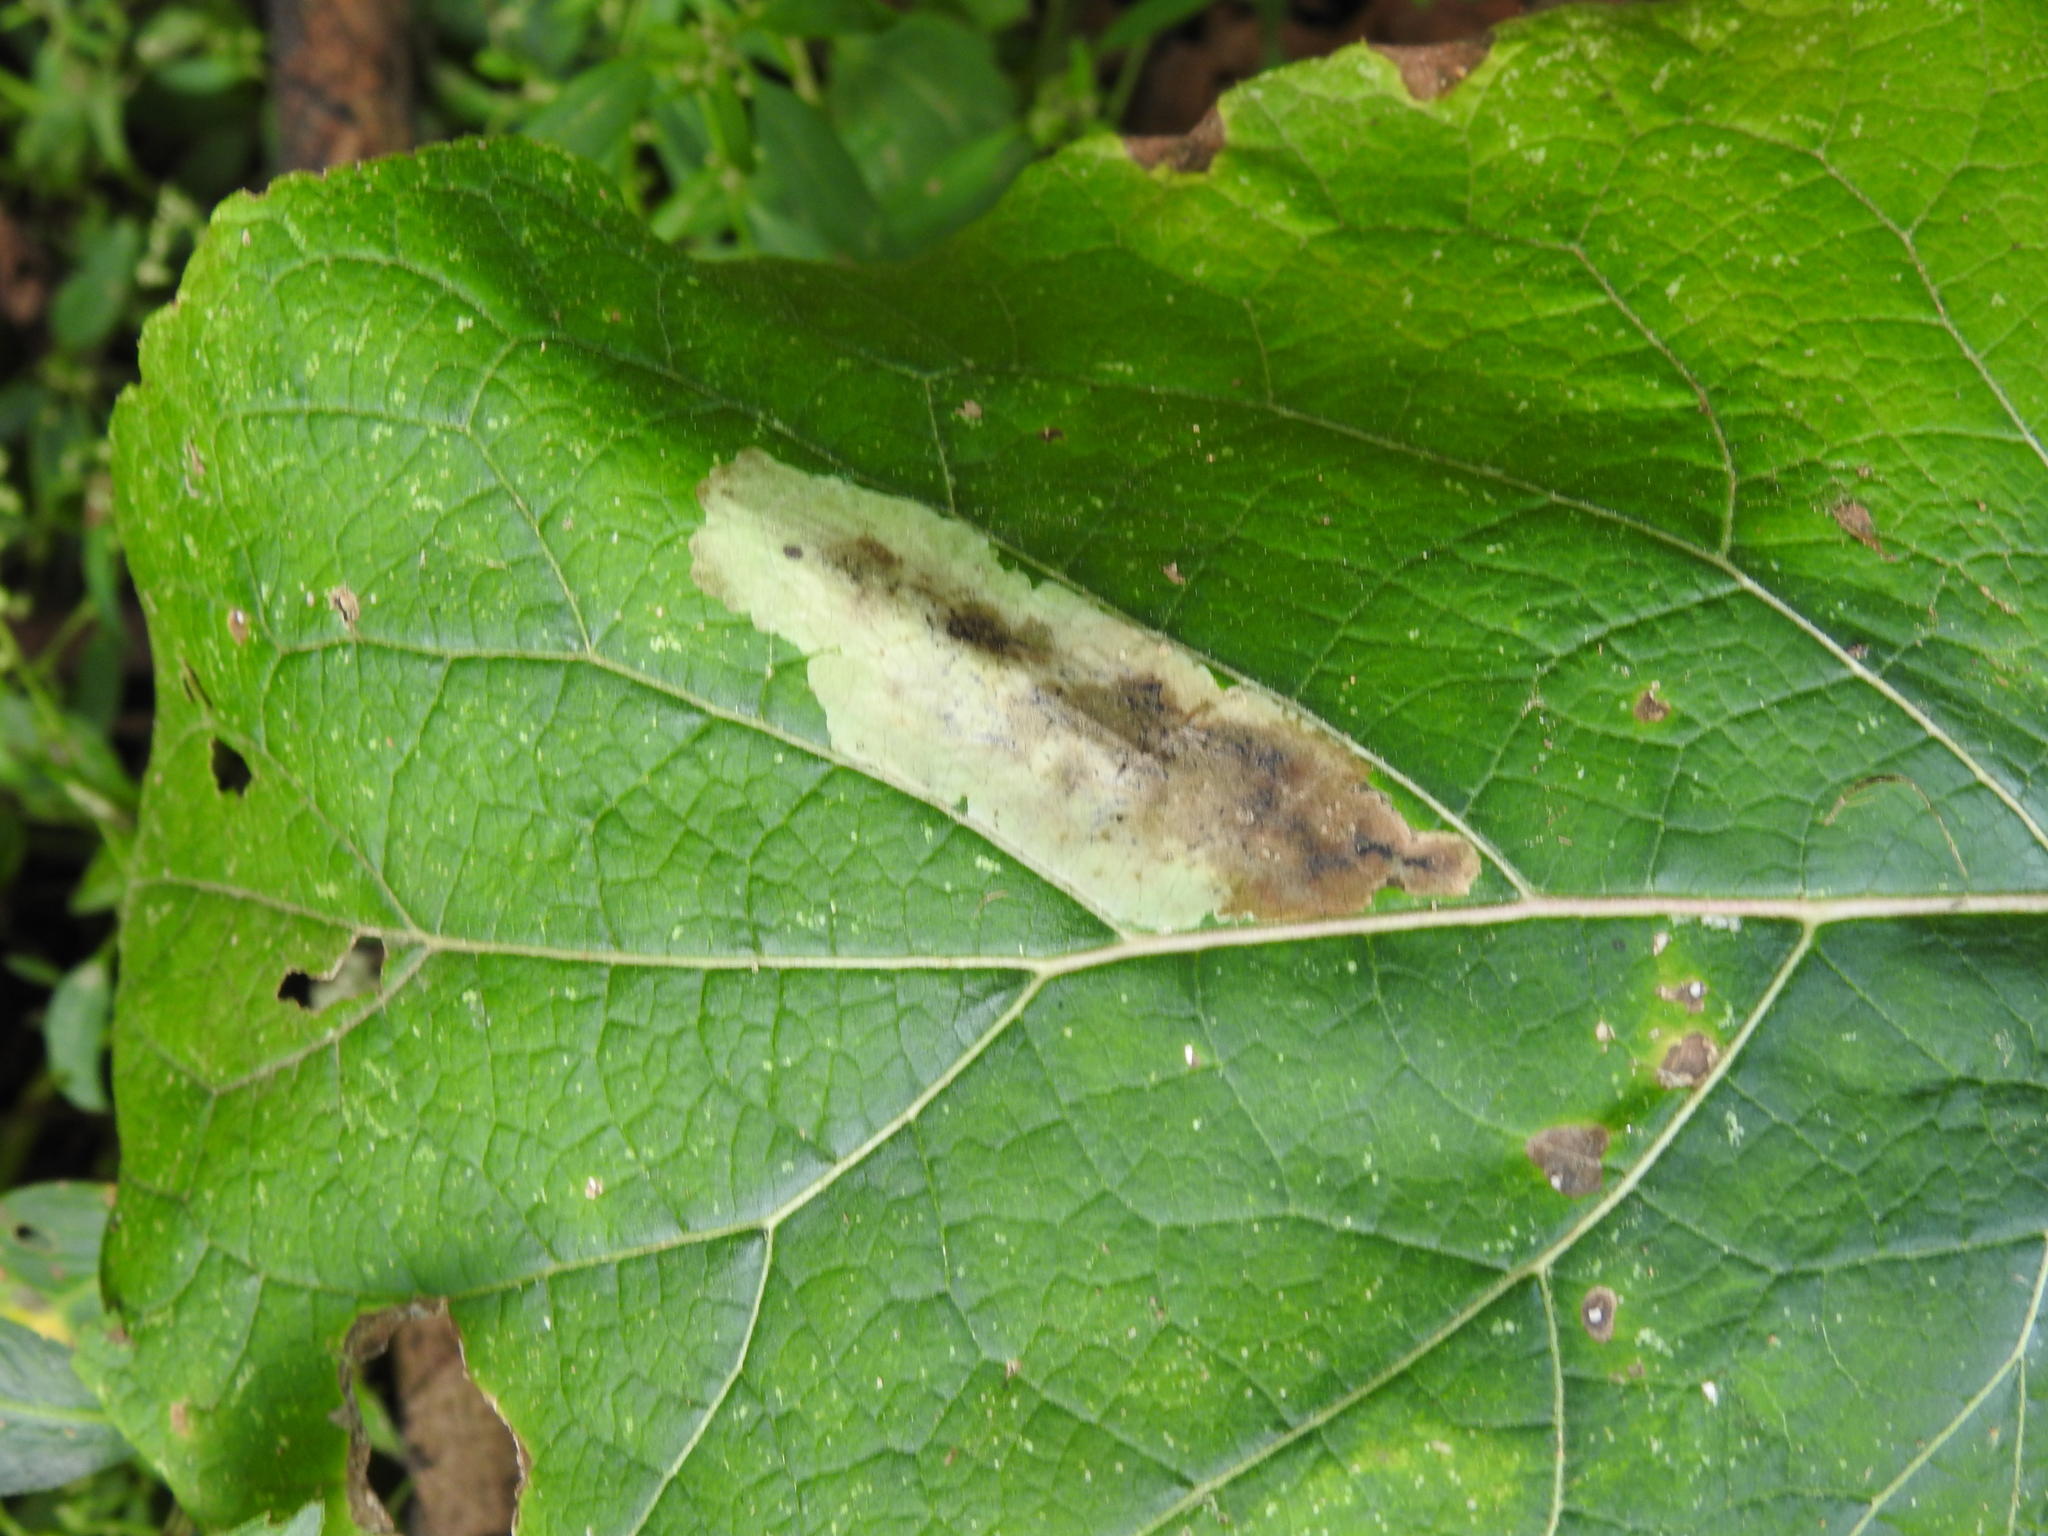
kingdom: Animalia
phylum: Arthropoda
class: Insecta
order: Diptera
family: Agromyzidae
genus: Calycomyza
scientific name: Calycomyza flavinotum
